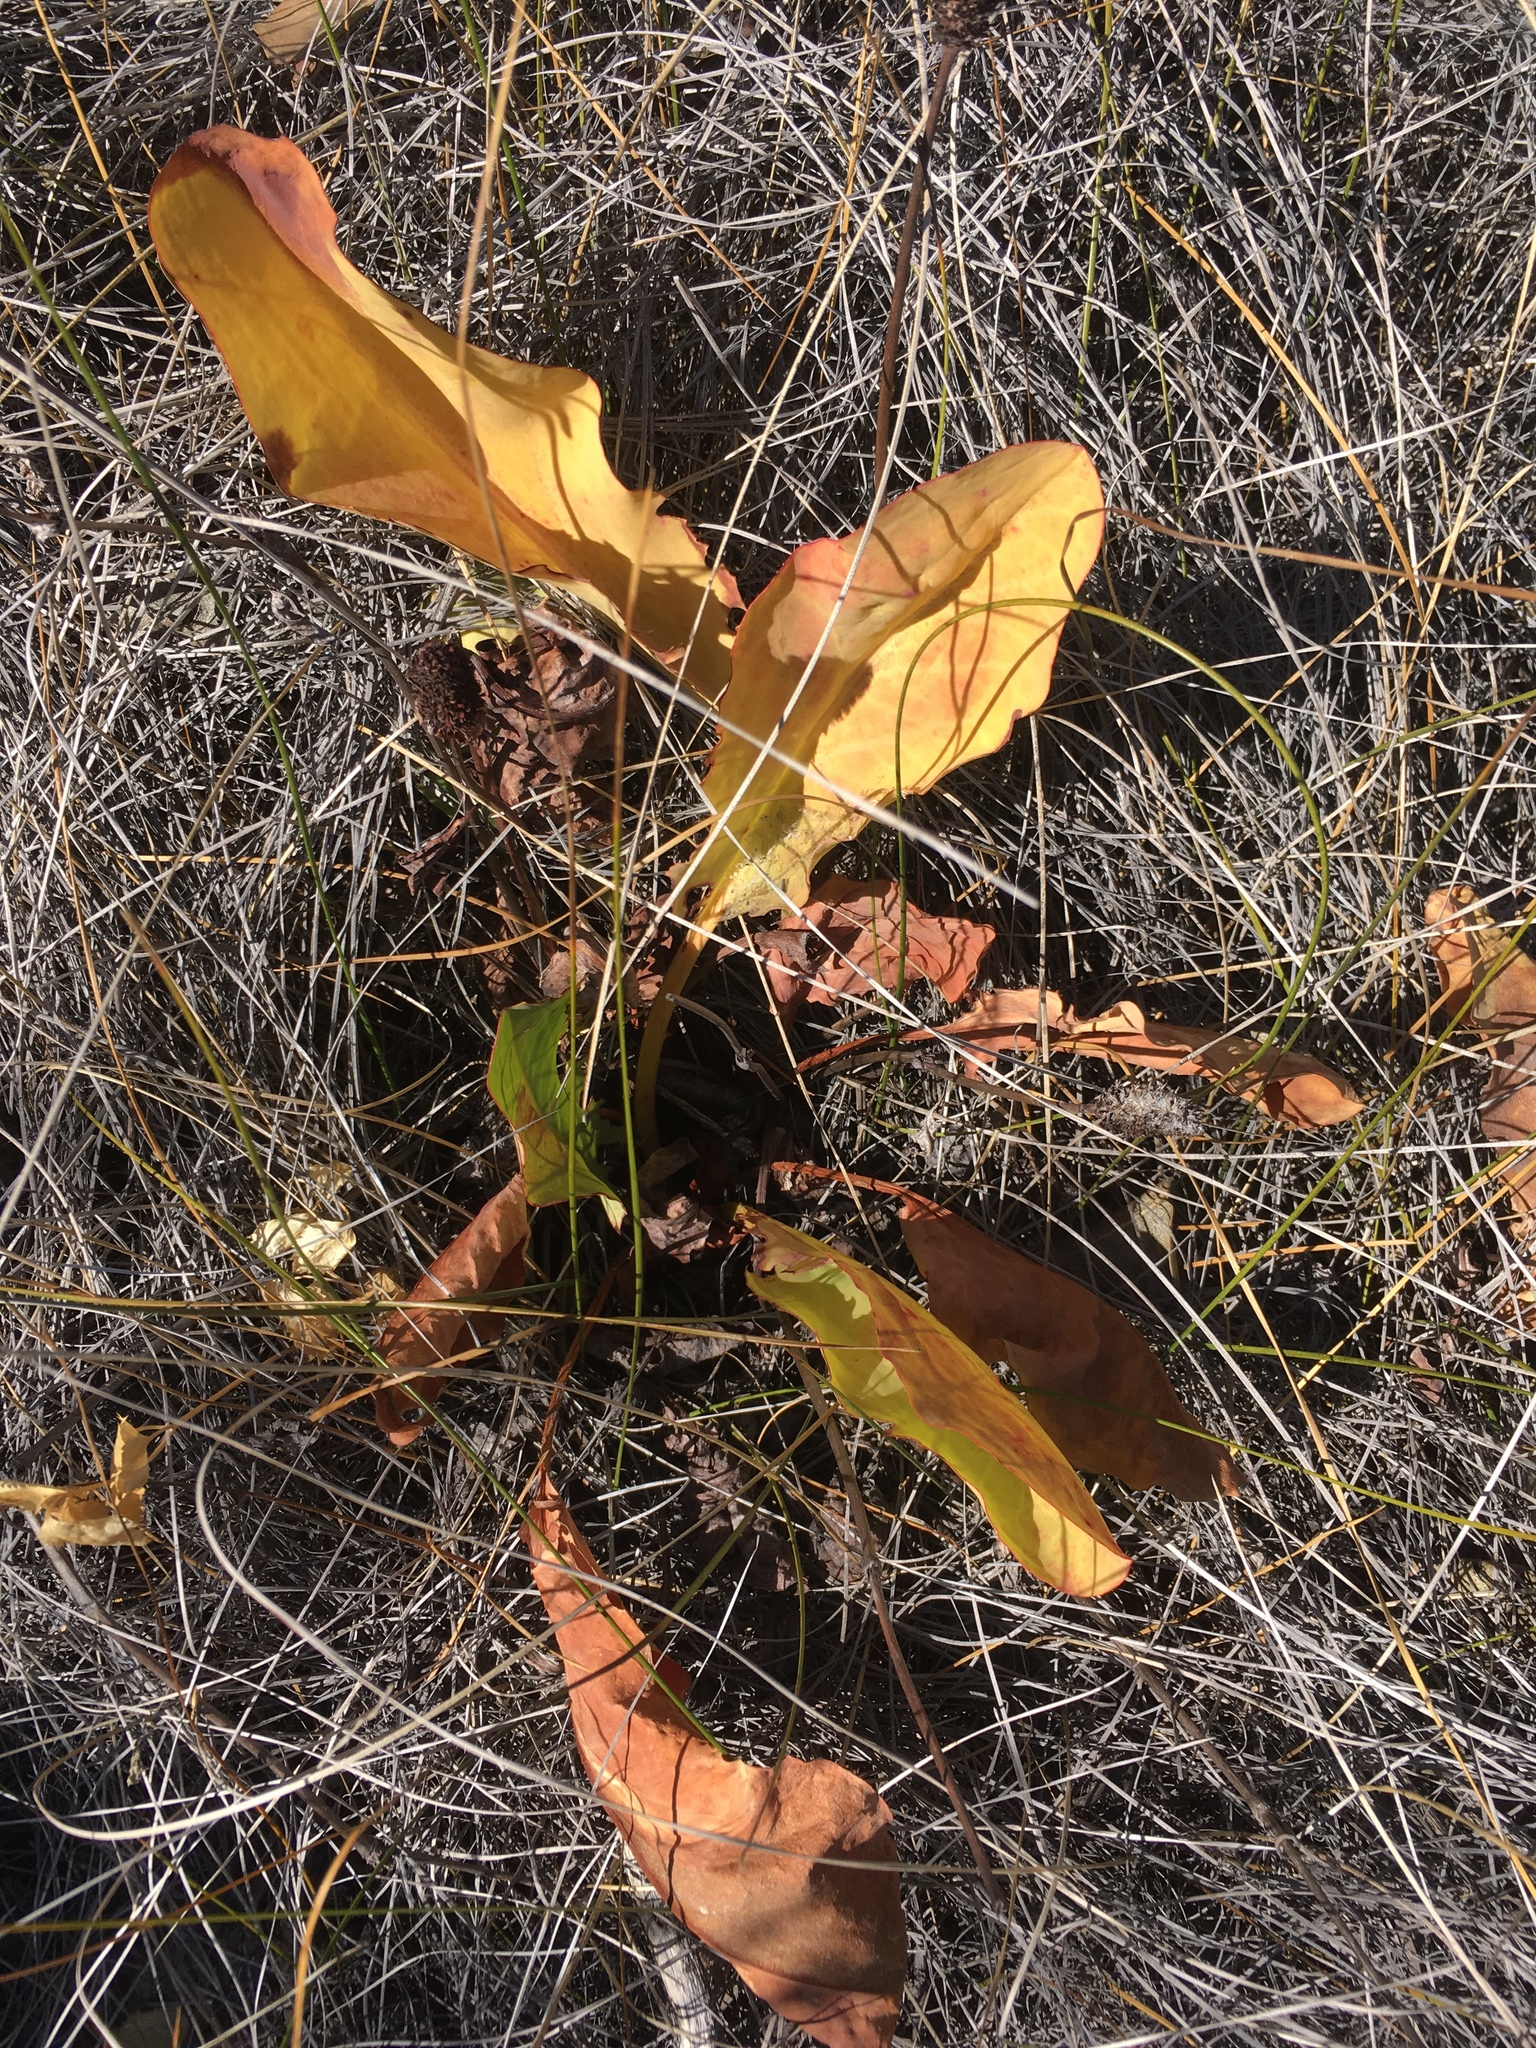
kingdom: Plantae
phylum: Tracheophyta
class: Magnoliopsida
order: Piperales
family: Saururaceae
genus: Anemopsis
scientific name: Anemopsis californica
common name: Apache-beads
